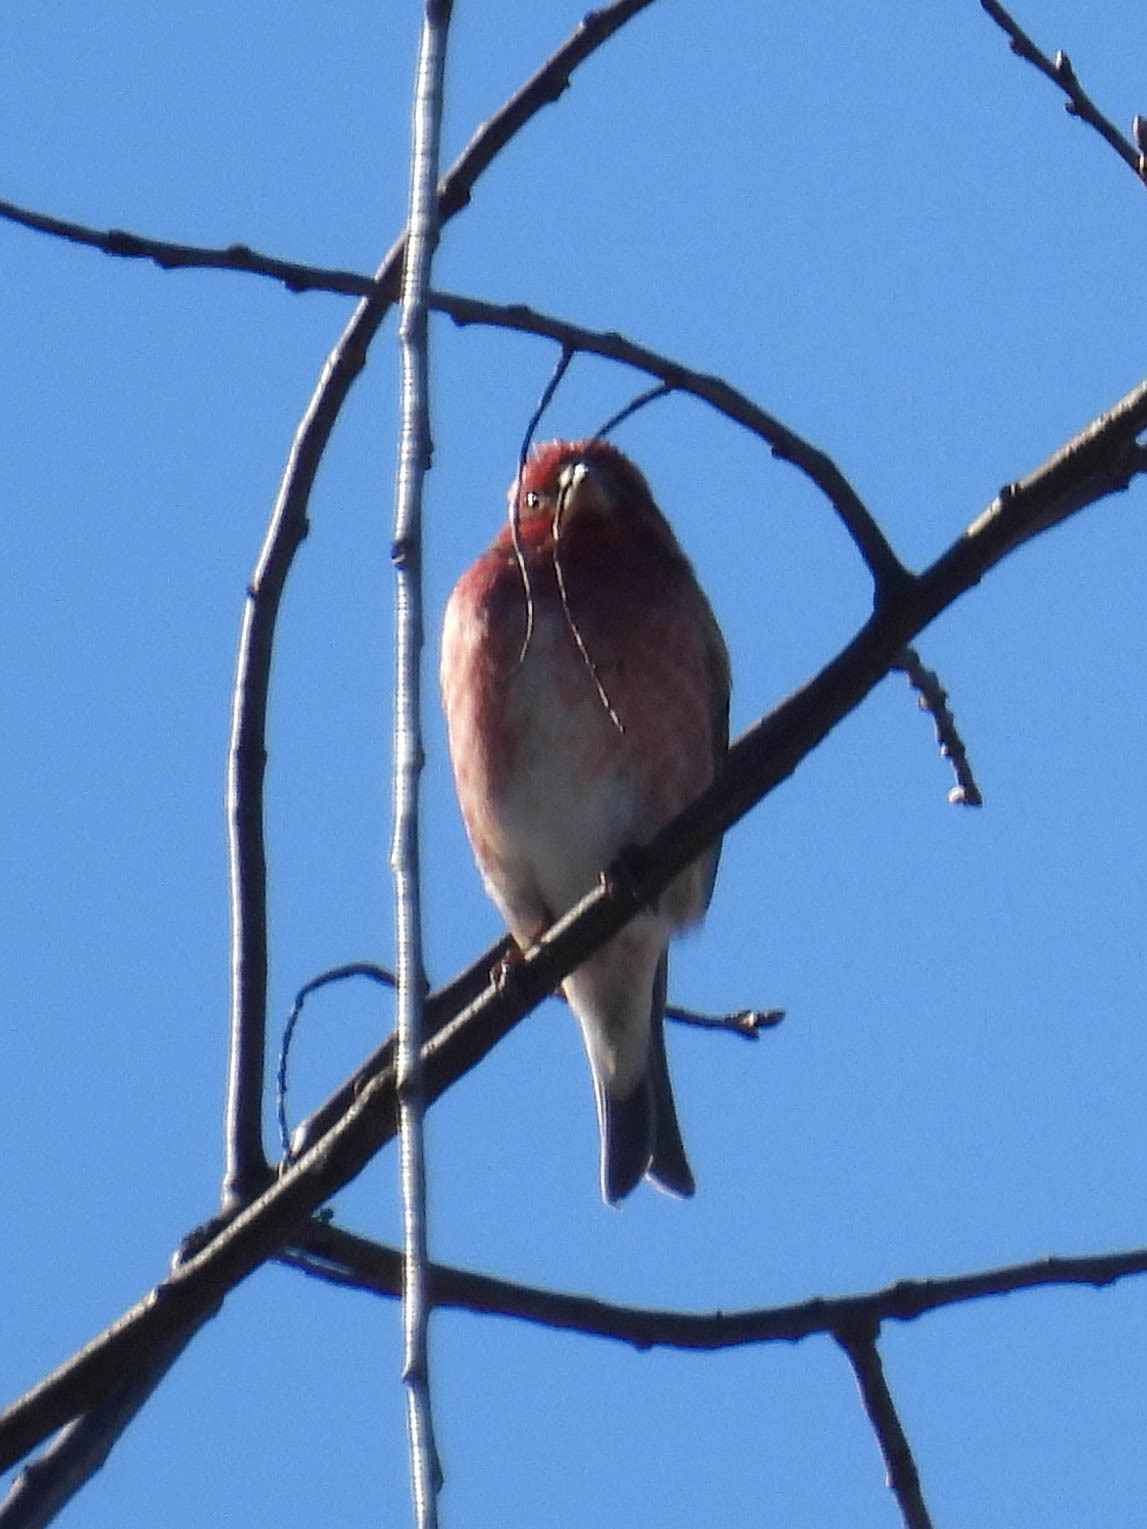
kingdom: Animalia
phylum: Chordata
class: Aves
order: Passeriformes
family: Fringillidae
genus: Haemorhous
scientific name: Haemorhous purpureus
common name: Purple finch
